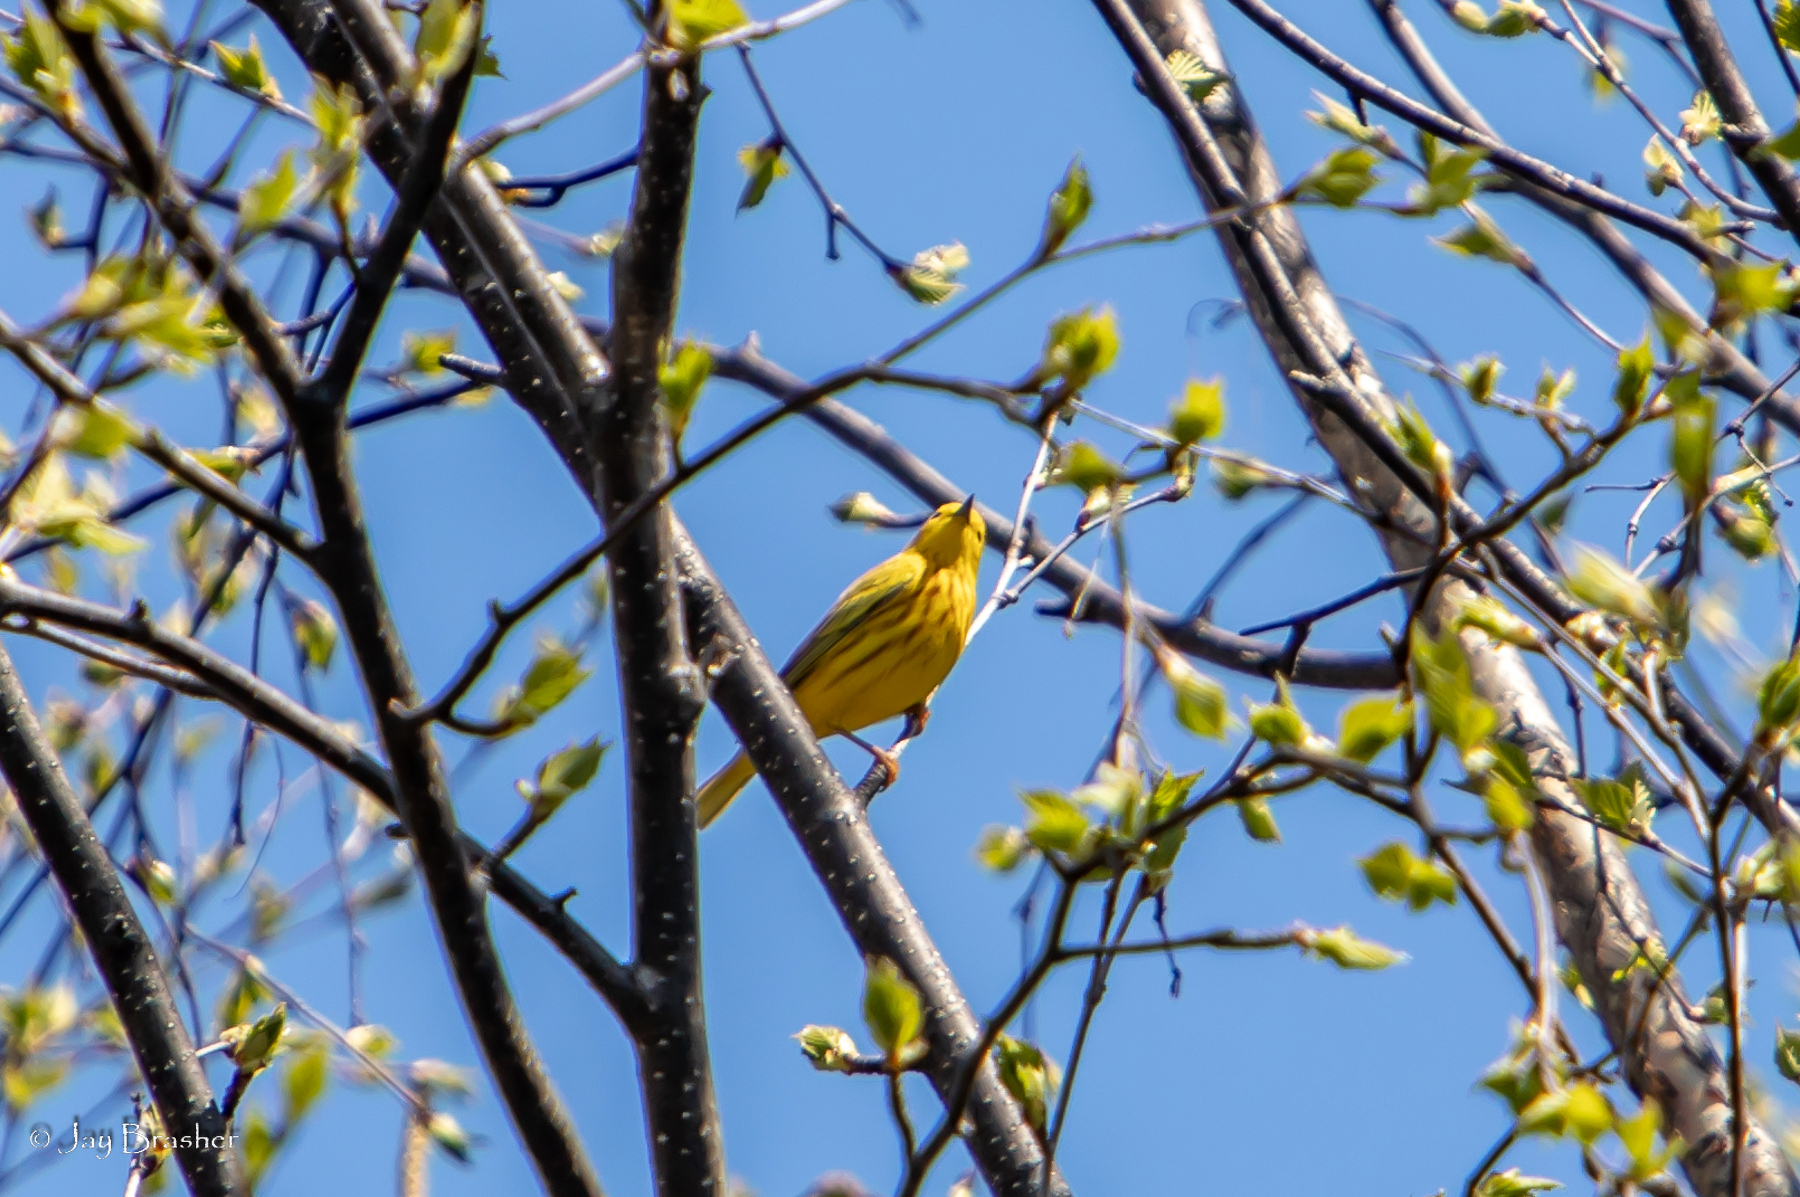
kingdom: Animalia
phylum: Chordata
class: Aves
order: Passeriformes
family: Parulidae
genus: Setophaga
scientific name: Setophaga petechia
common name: Yellow warbler
